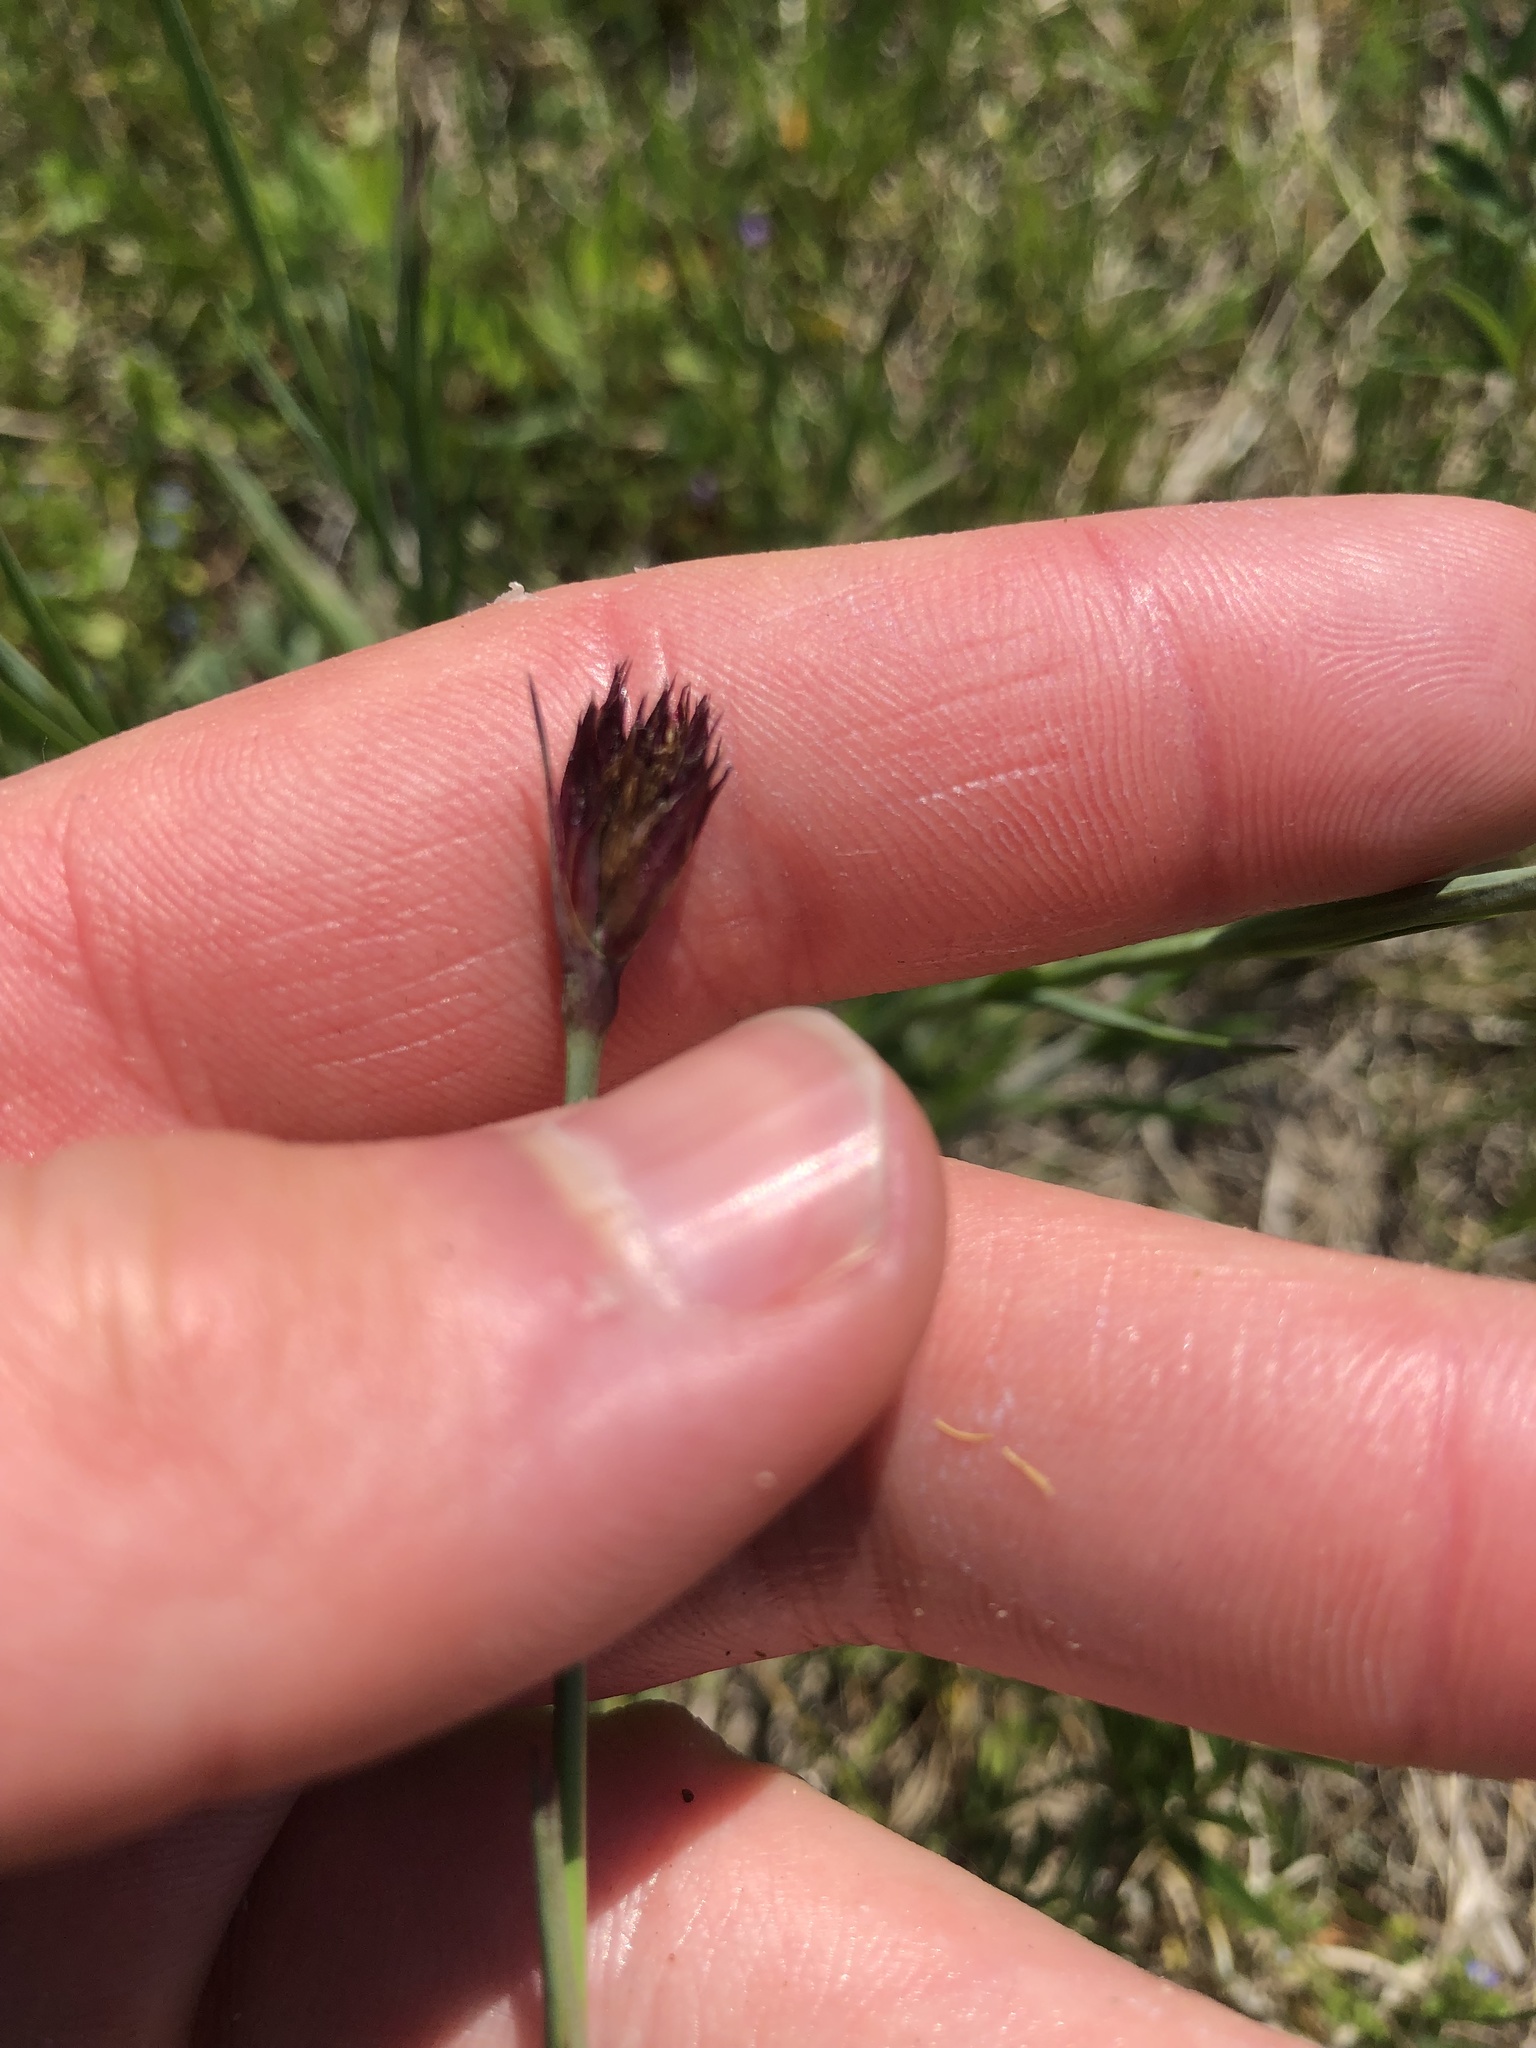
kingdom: Plantae
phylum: Tracheophyta
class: Magnoliopsida
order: Caryophyllales
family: Caryophyllaceae
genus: Dianthus
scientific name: Dianthus carthusianorum
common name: Carthusian pink
